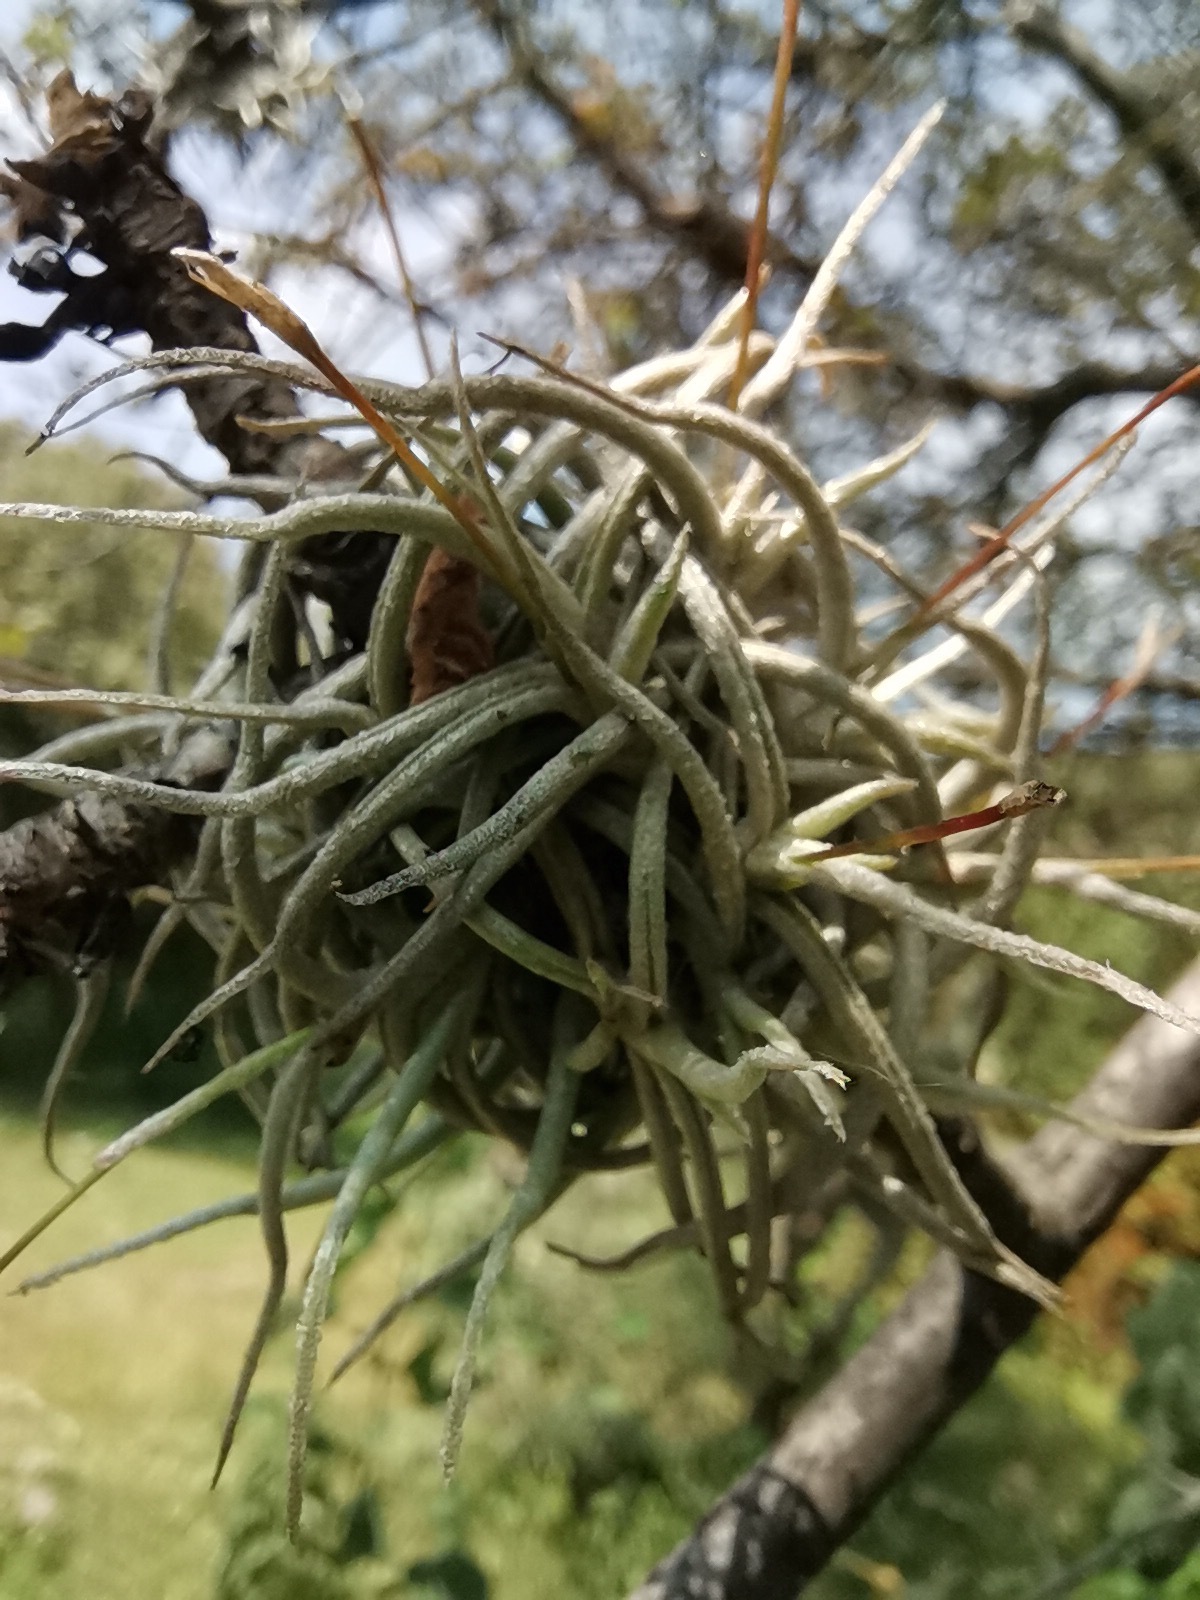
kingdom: Plantae
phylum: Tracheophyta
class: Liliopsida
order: Poales
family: Bromeliaceae
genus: Tillandsia
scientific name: Tillandsia recurvata
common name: Small ballmoss
